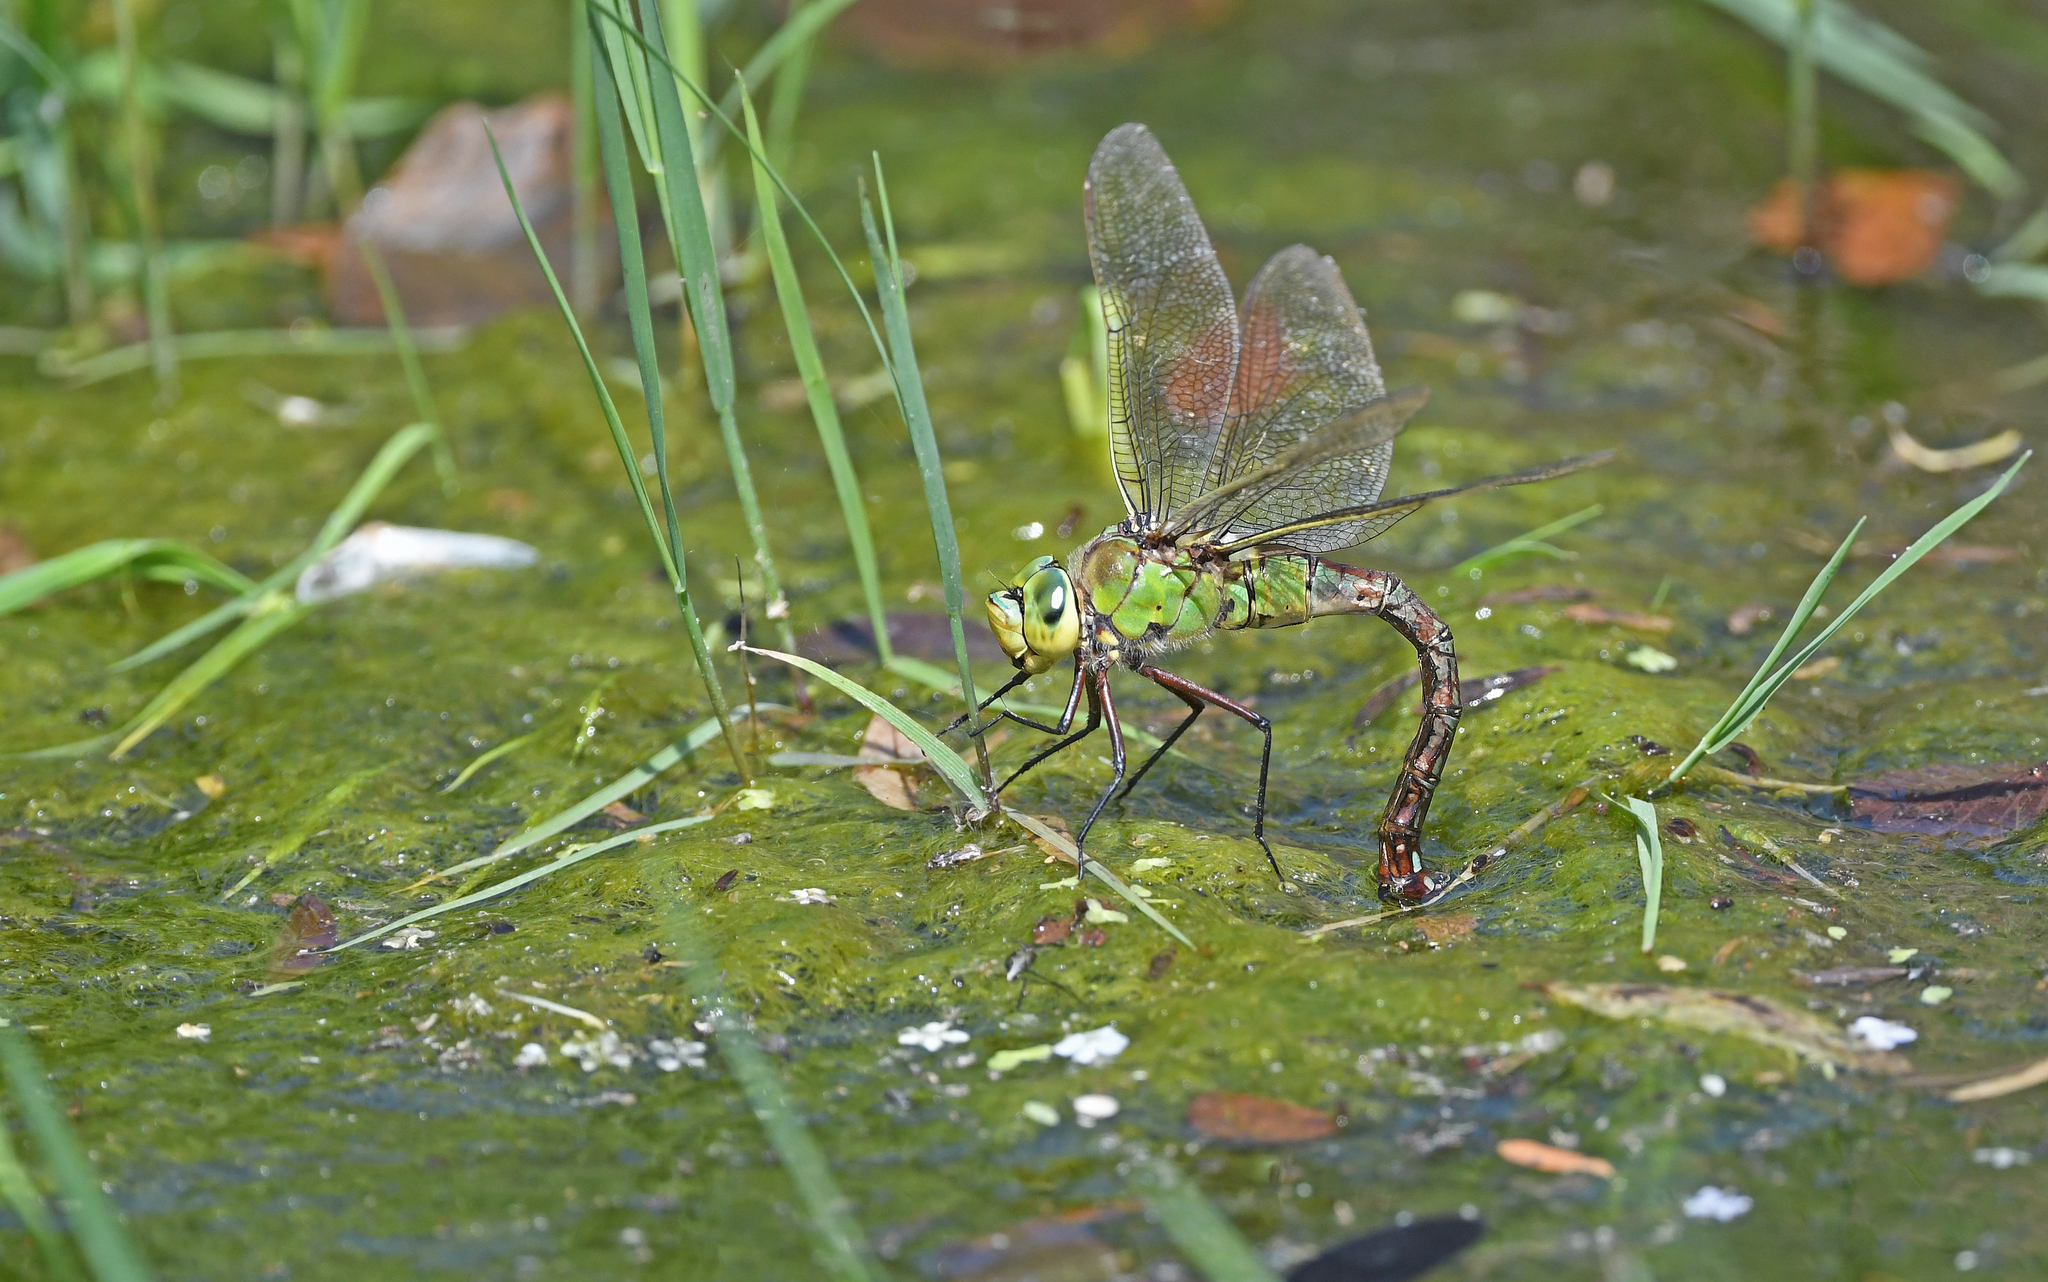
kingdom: Animalia
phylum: Arthropoda
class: Insecta
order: Odonata
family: Aeshnidae
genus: Anax
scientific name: Anax imperator
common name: Emperor dragonfly
